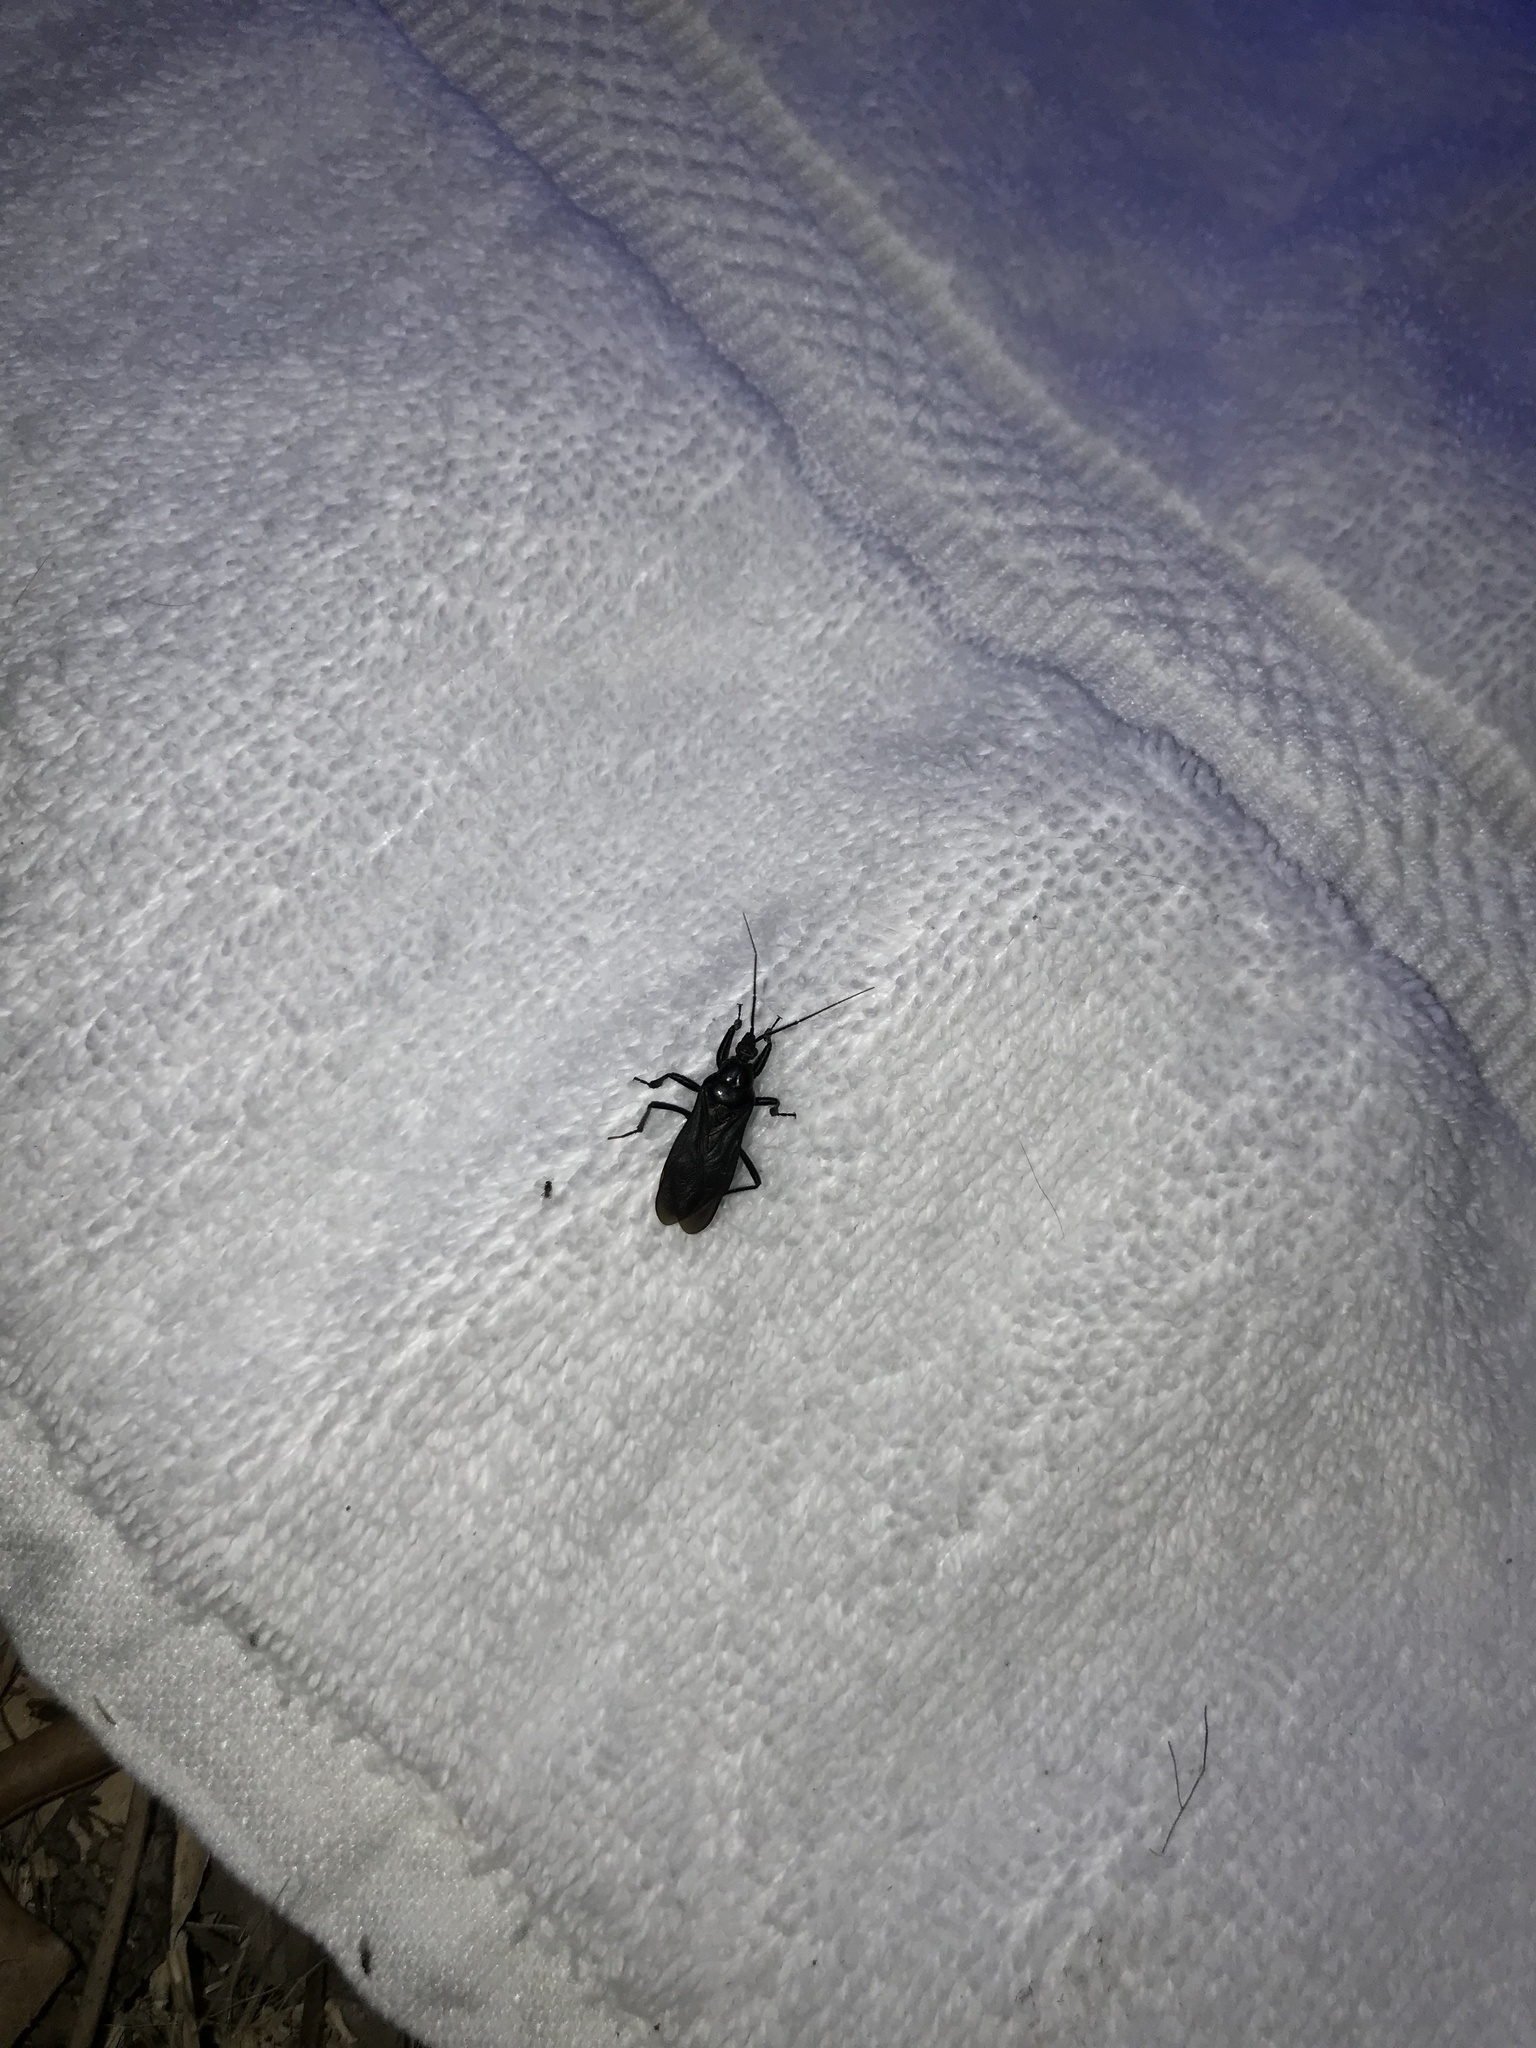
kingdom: Animalia
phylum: Arthropoda
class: Insecta
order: Hemiptera
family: Reduviidae
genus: Melanolestes
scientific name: Melanolestes picipes
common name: Assassin bug
